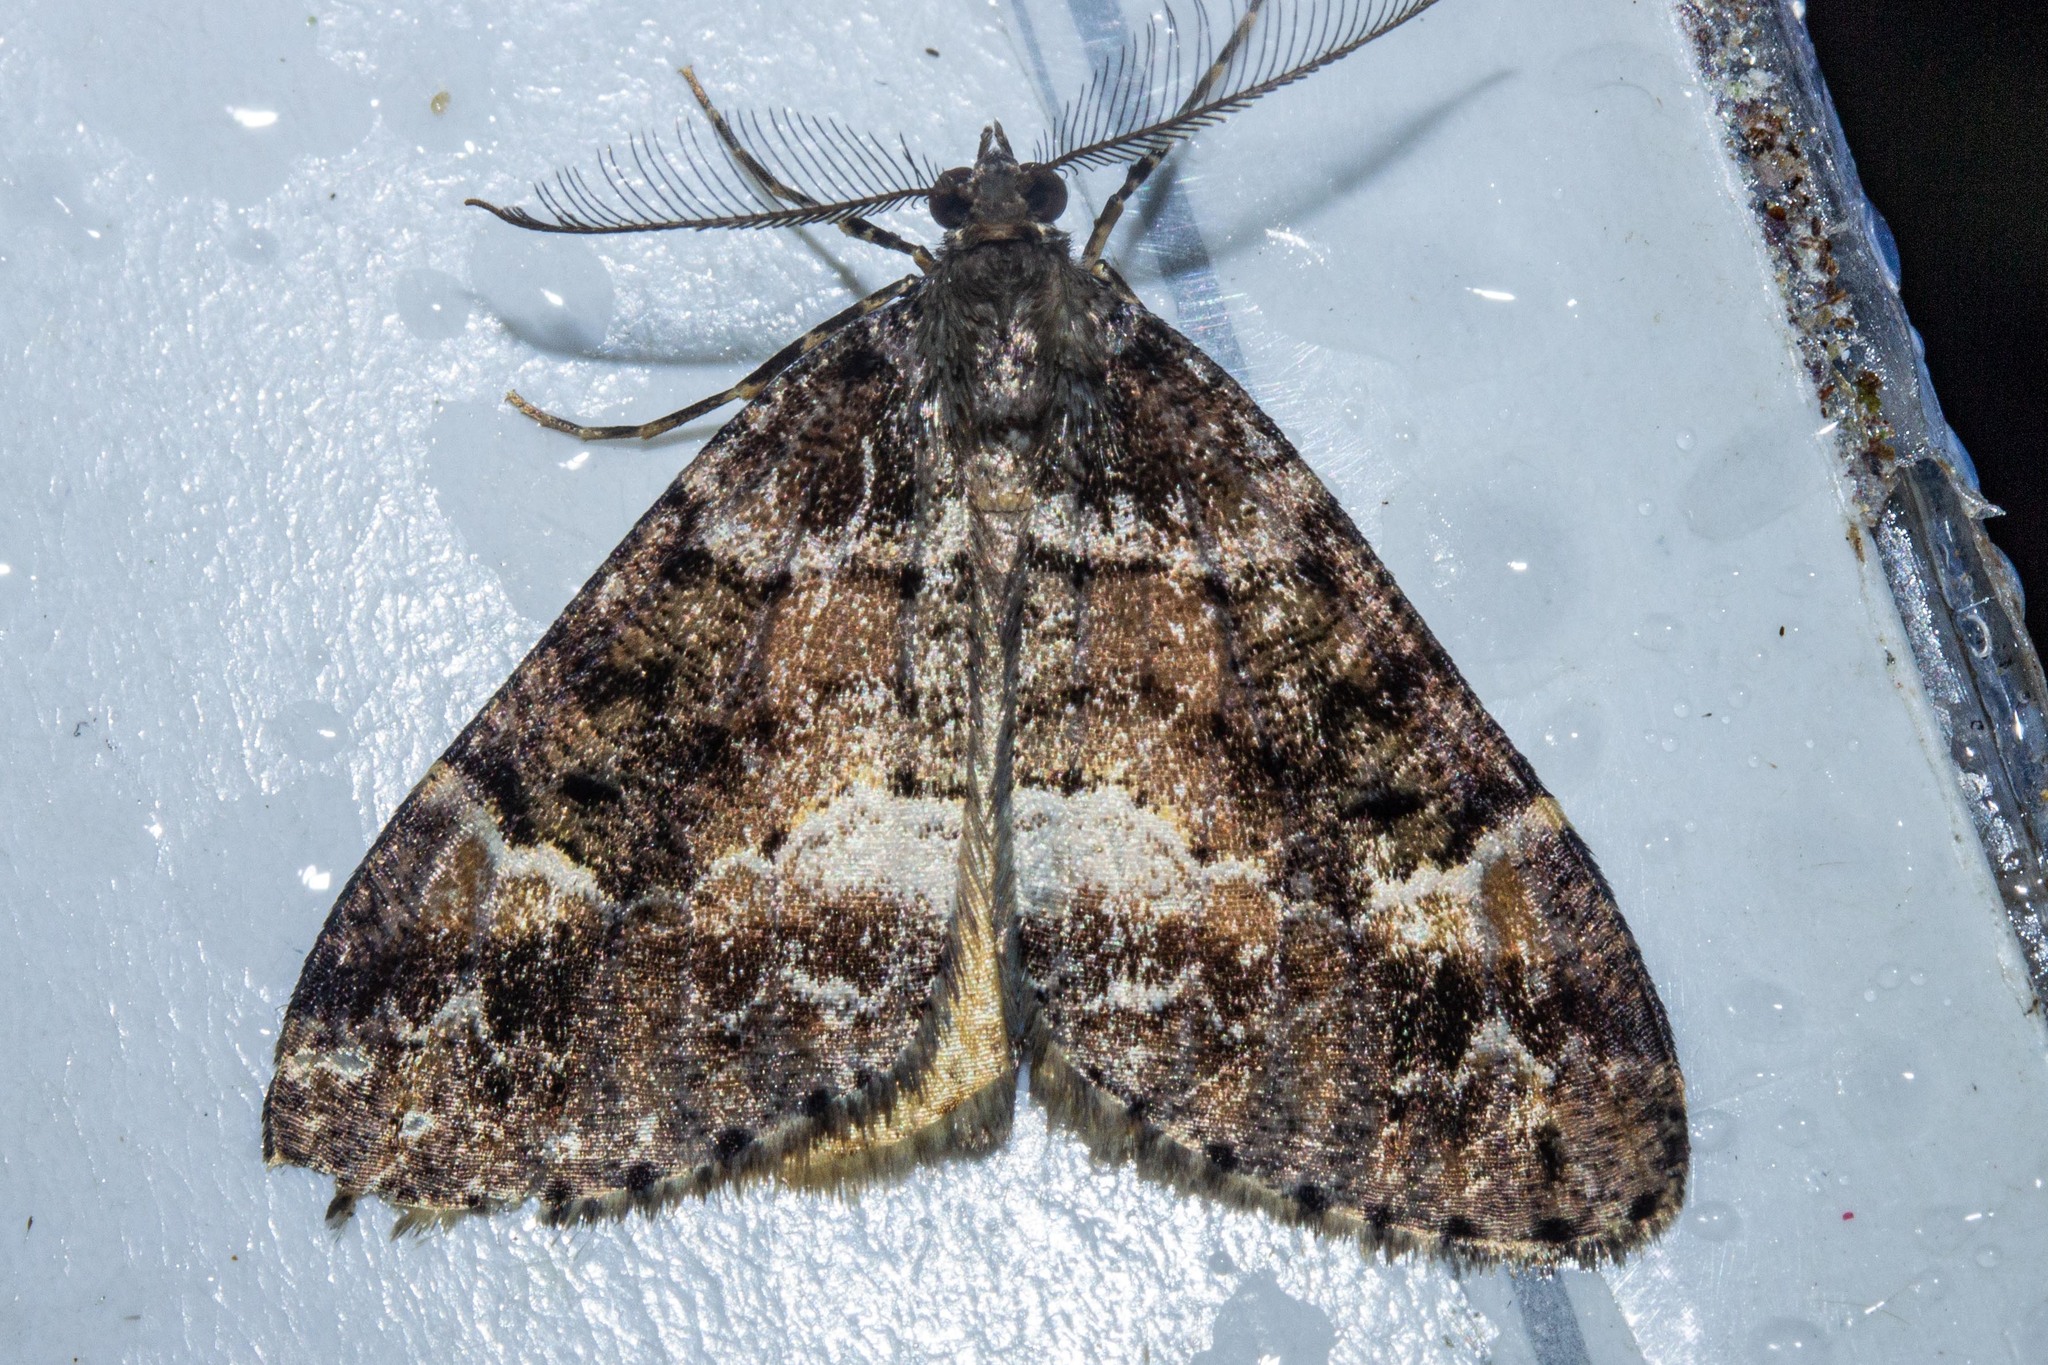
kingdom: Animalia
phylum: Arthropoda
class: Insecta
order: Lepidoptera
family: Geometridae
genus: Pseudocoremia
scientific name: Pseudocoremia productata
